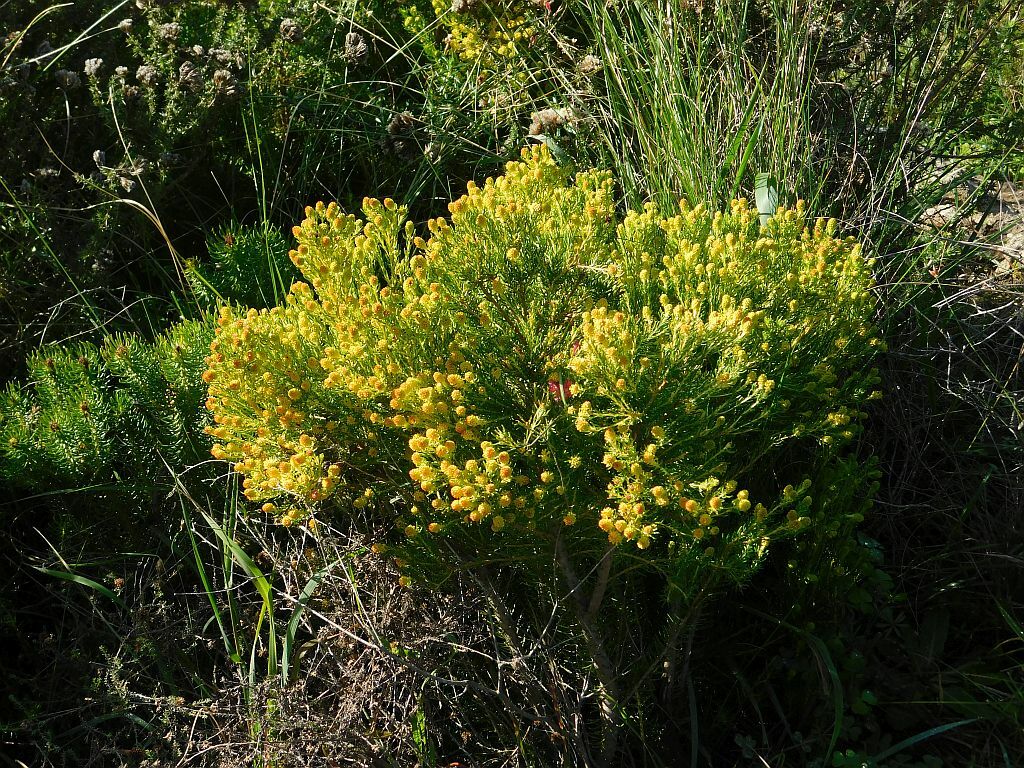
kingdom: Plantae
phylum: Tracheophyta
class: Magnoliopsida
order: Proteales
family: Proteaceae
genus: Leucadendron
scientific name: Leucadendron teretifolium
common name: Needle-leaf conebush
